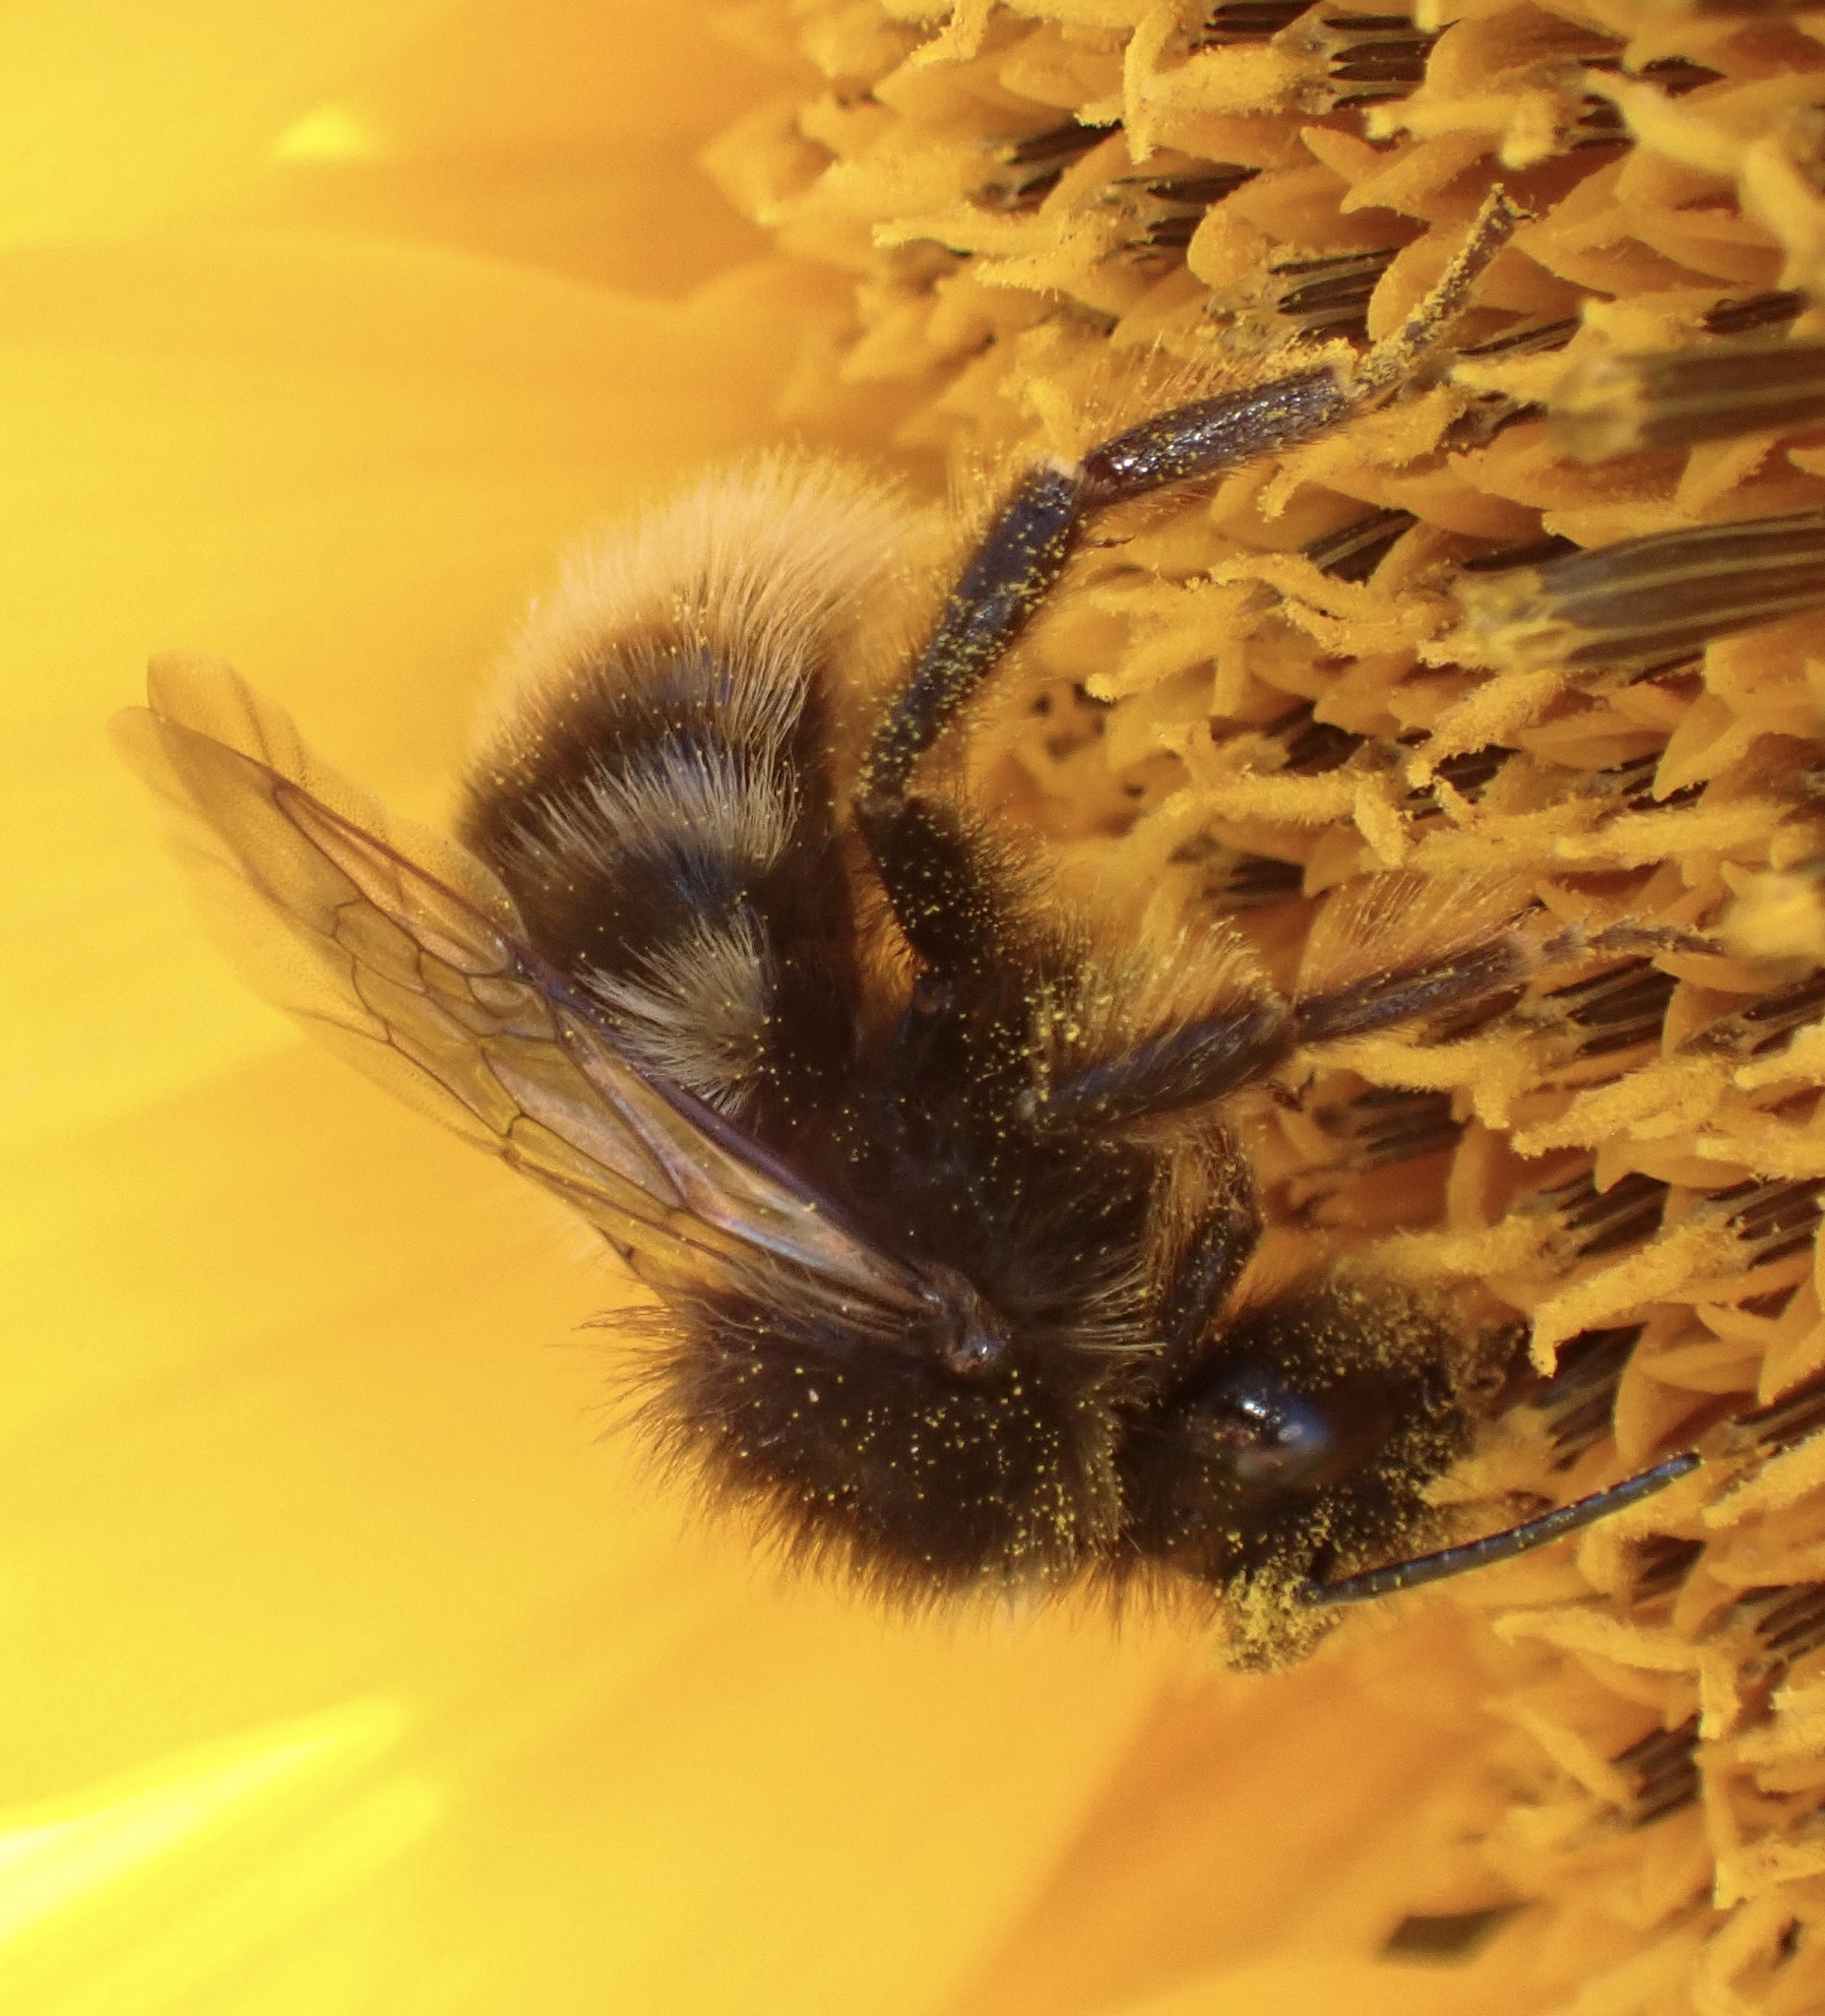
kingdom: Animalia
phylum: Arthropoda
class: Insecta
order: Hymenoptera
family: Apidae
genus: Bombus
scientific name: Bombus rupestris
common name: Hill cuckoo-bee
